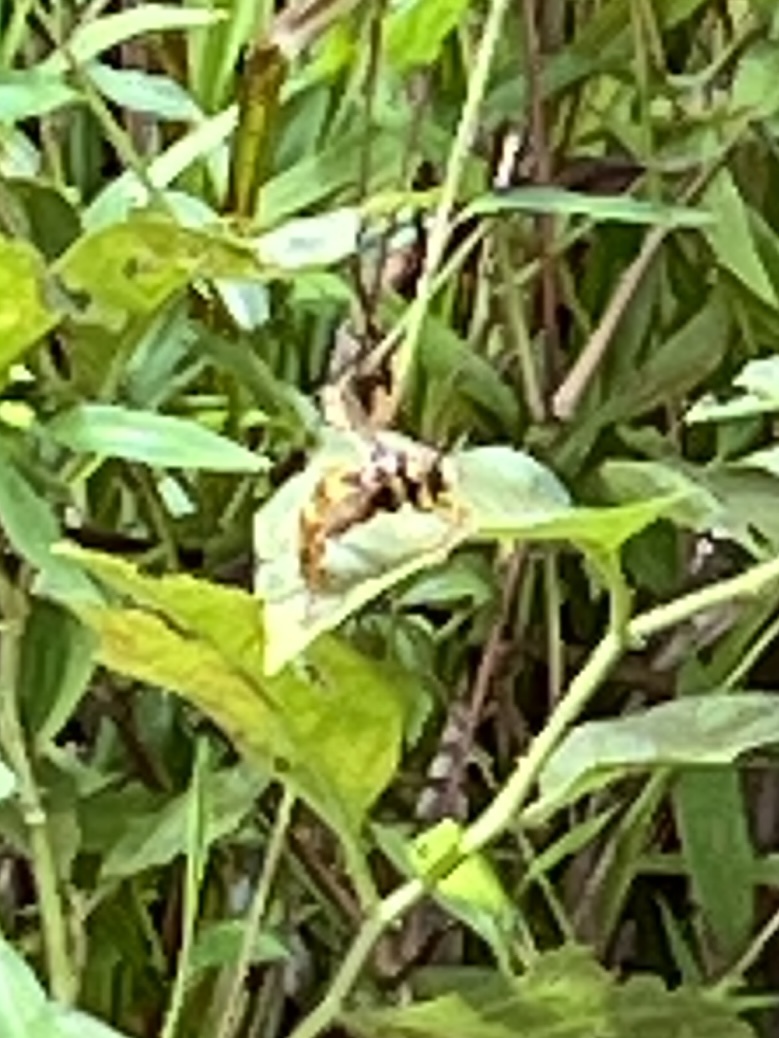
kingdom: Animalia
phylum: Arthropoda
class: Insecta
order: Diptera
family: Syrphidae
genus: Milesia
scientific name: Milesia virginiensis
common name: Virginia giant
